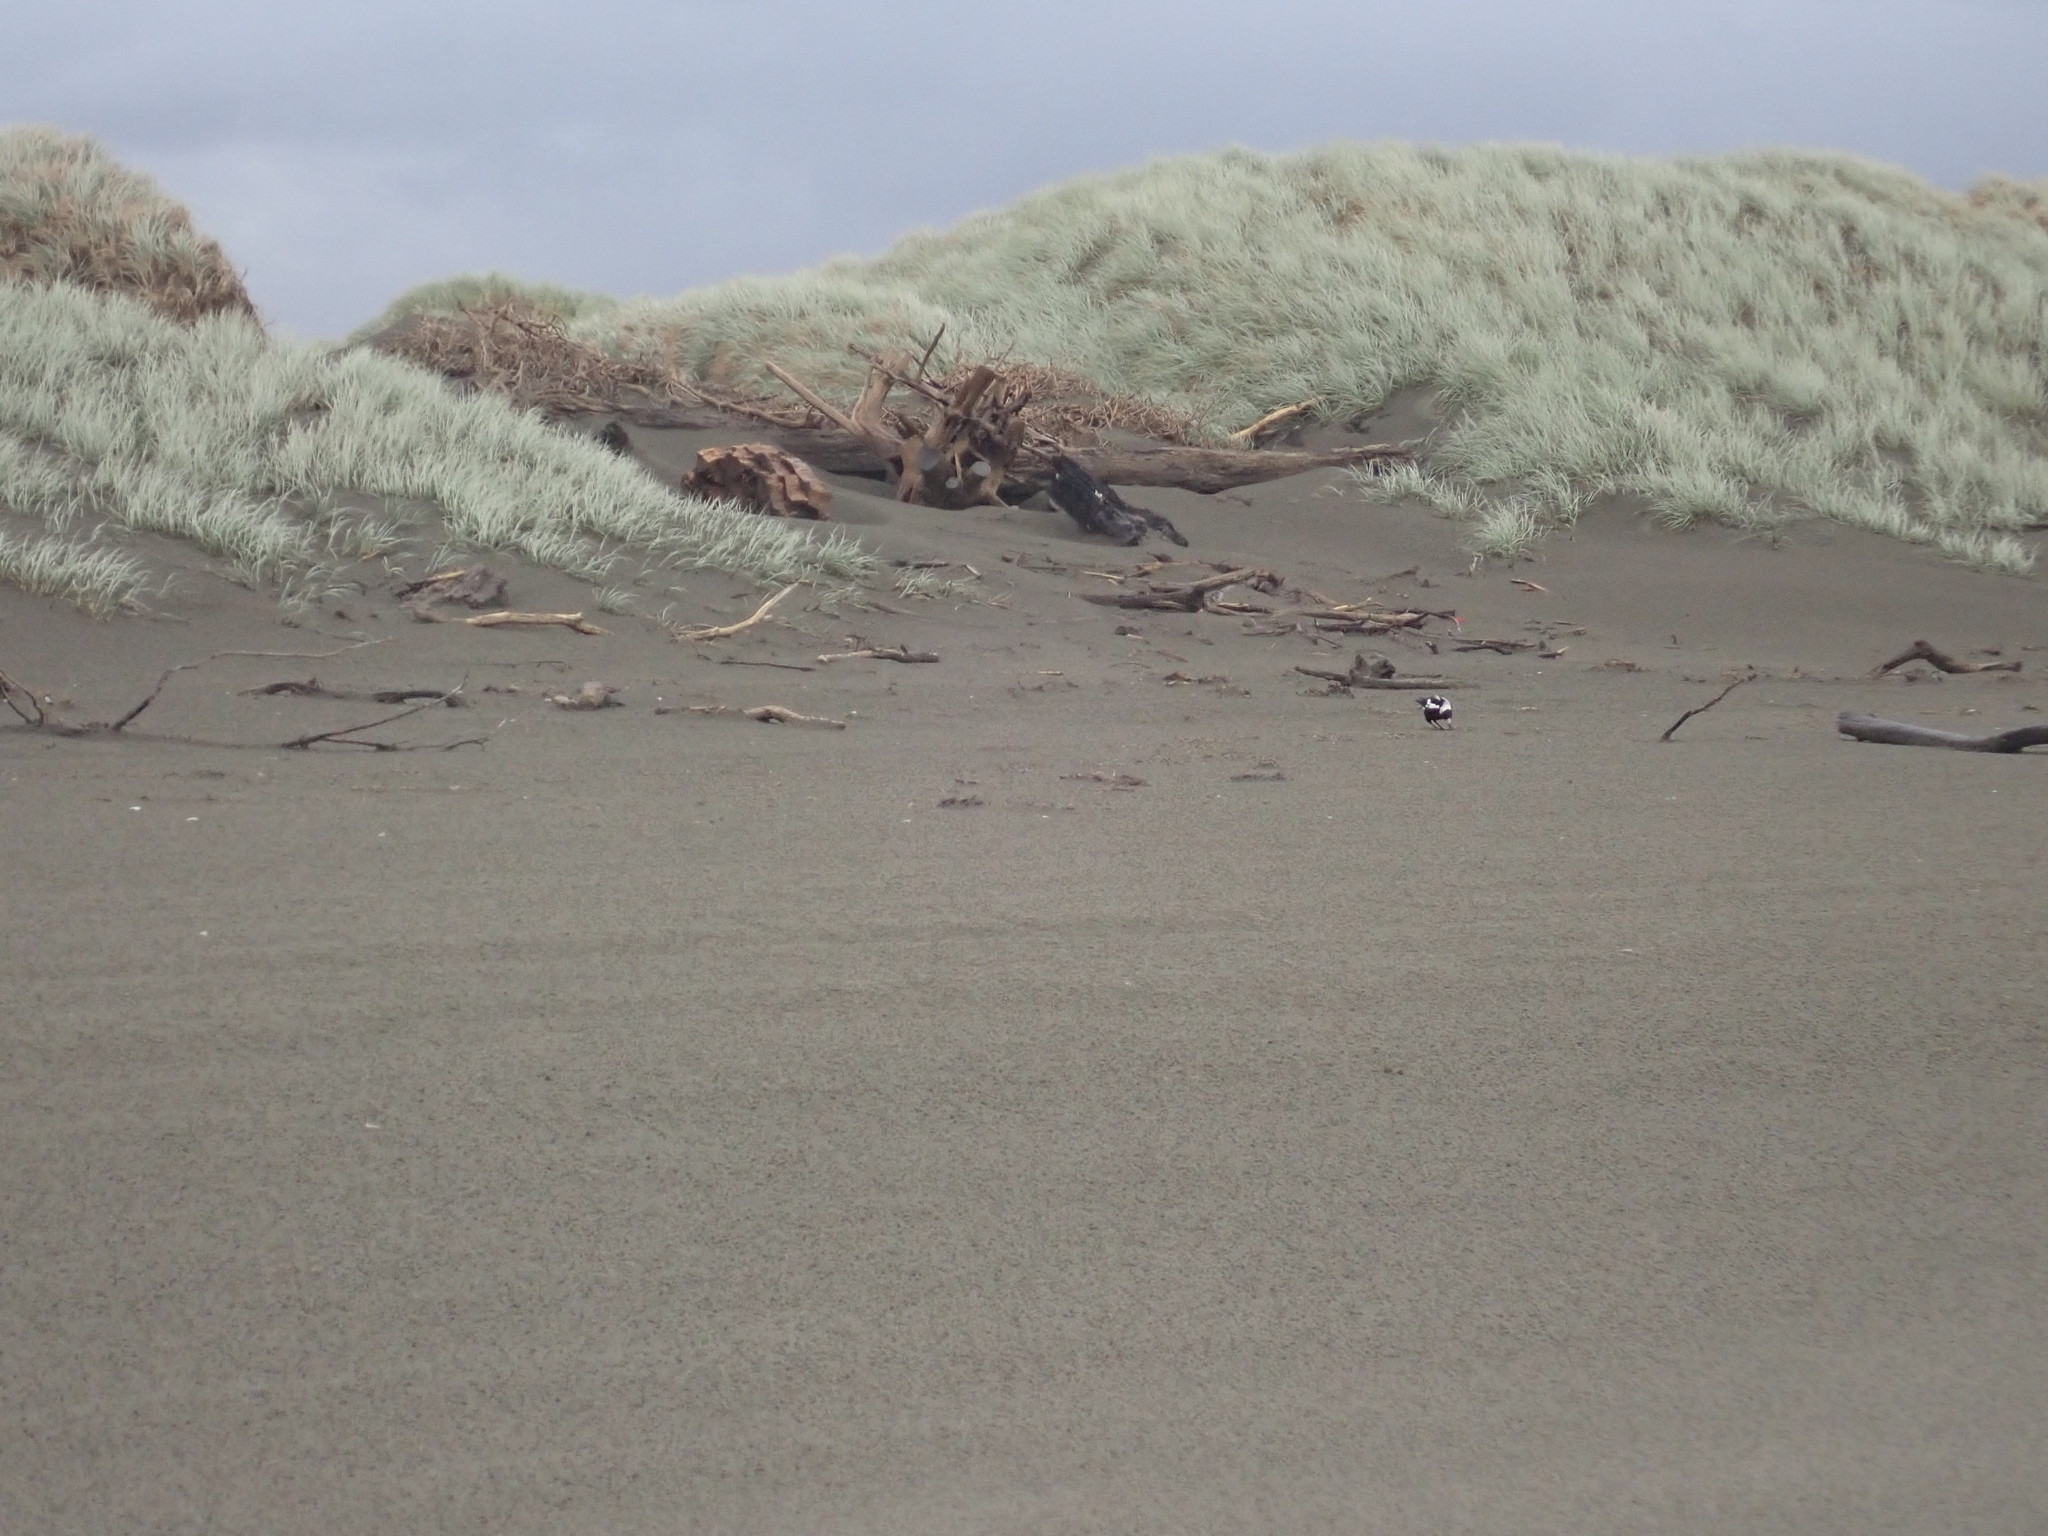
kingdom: Animalia
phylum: Chordata
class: Aves
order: Passeriformes
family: Cracticidae
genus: Gymnorhina
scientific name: Gymnorhina tibicen
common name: Australian magpie
